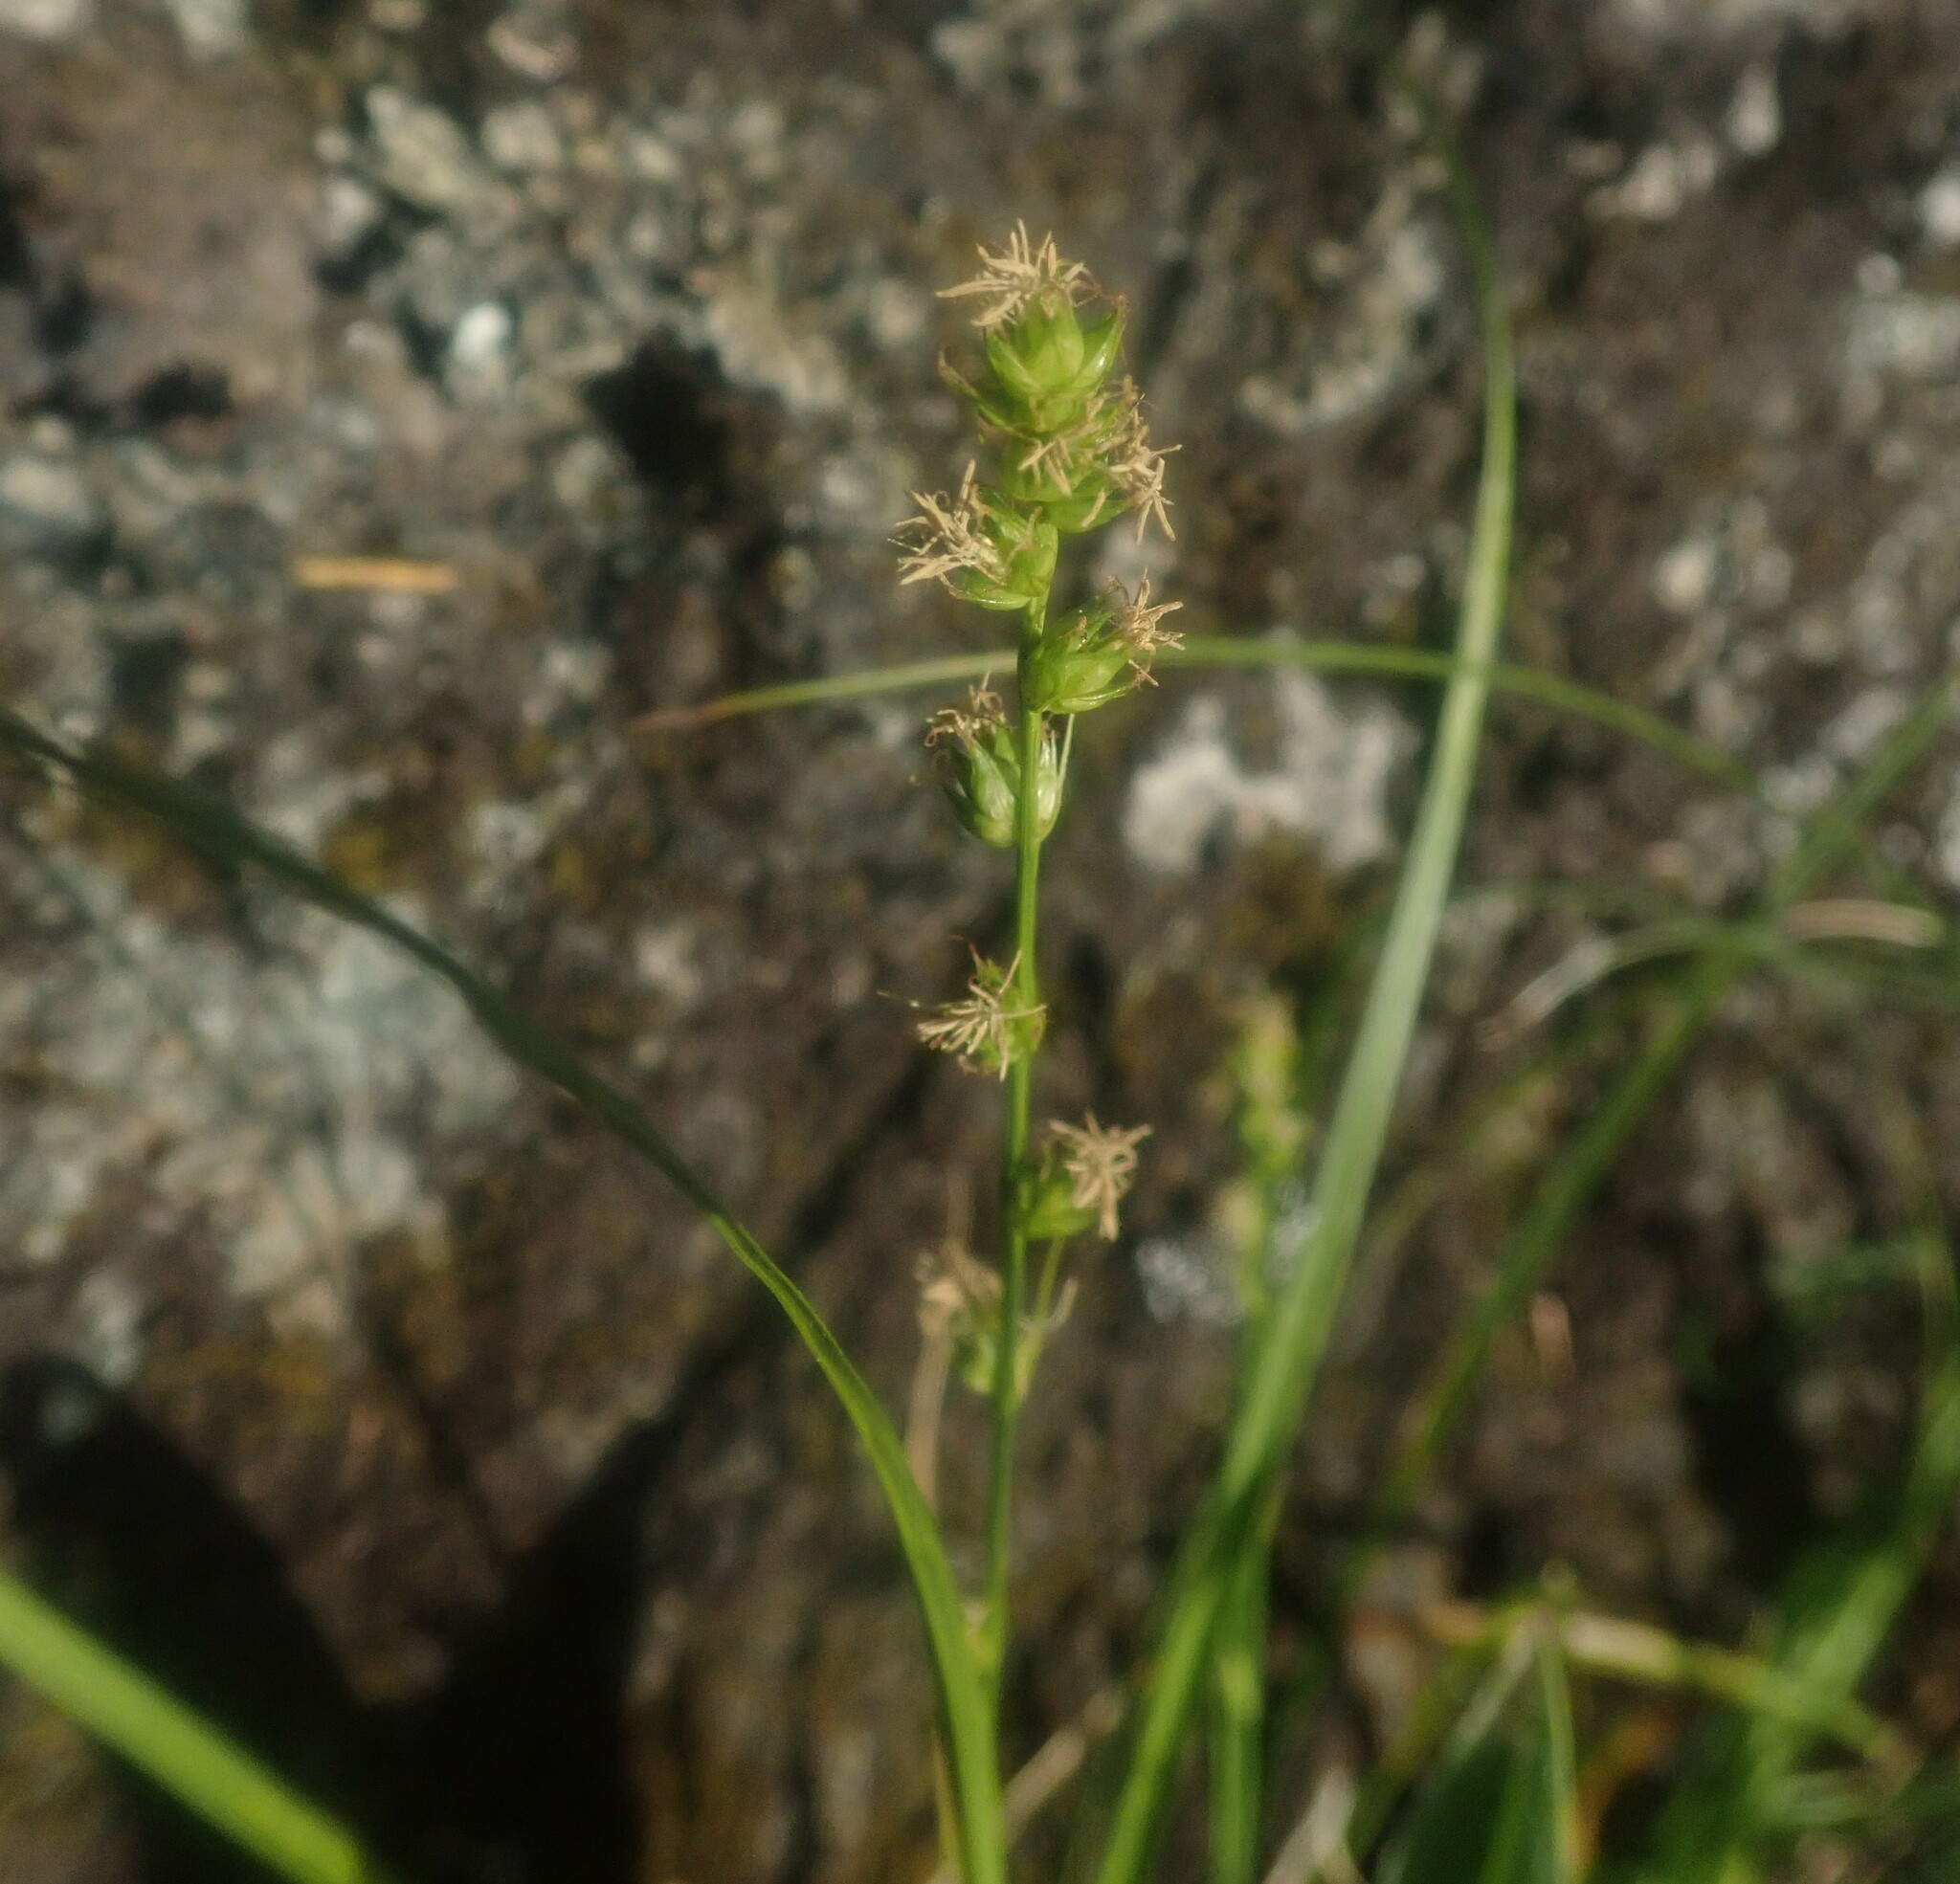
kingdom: Plantae
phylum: Tracheophyta
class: Liliopsida
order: Poales
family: Cyperaceae
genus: Carex
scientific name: Carex divulsa
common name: Grassland sedge
